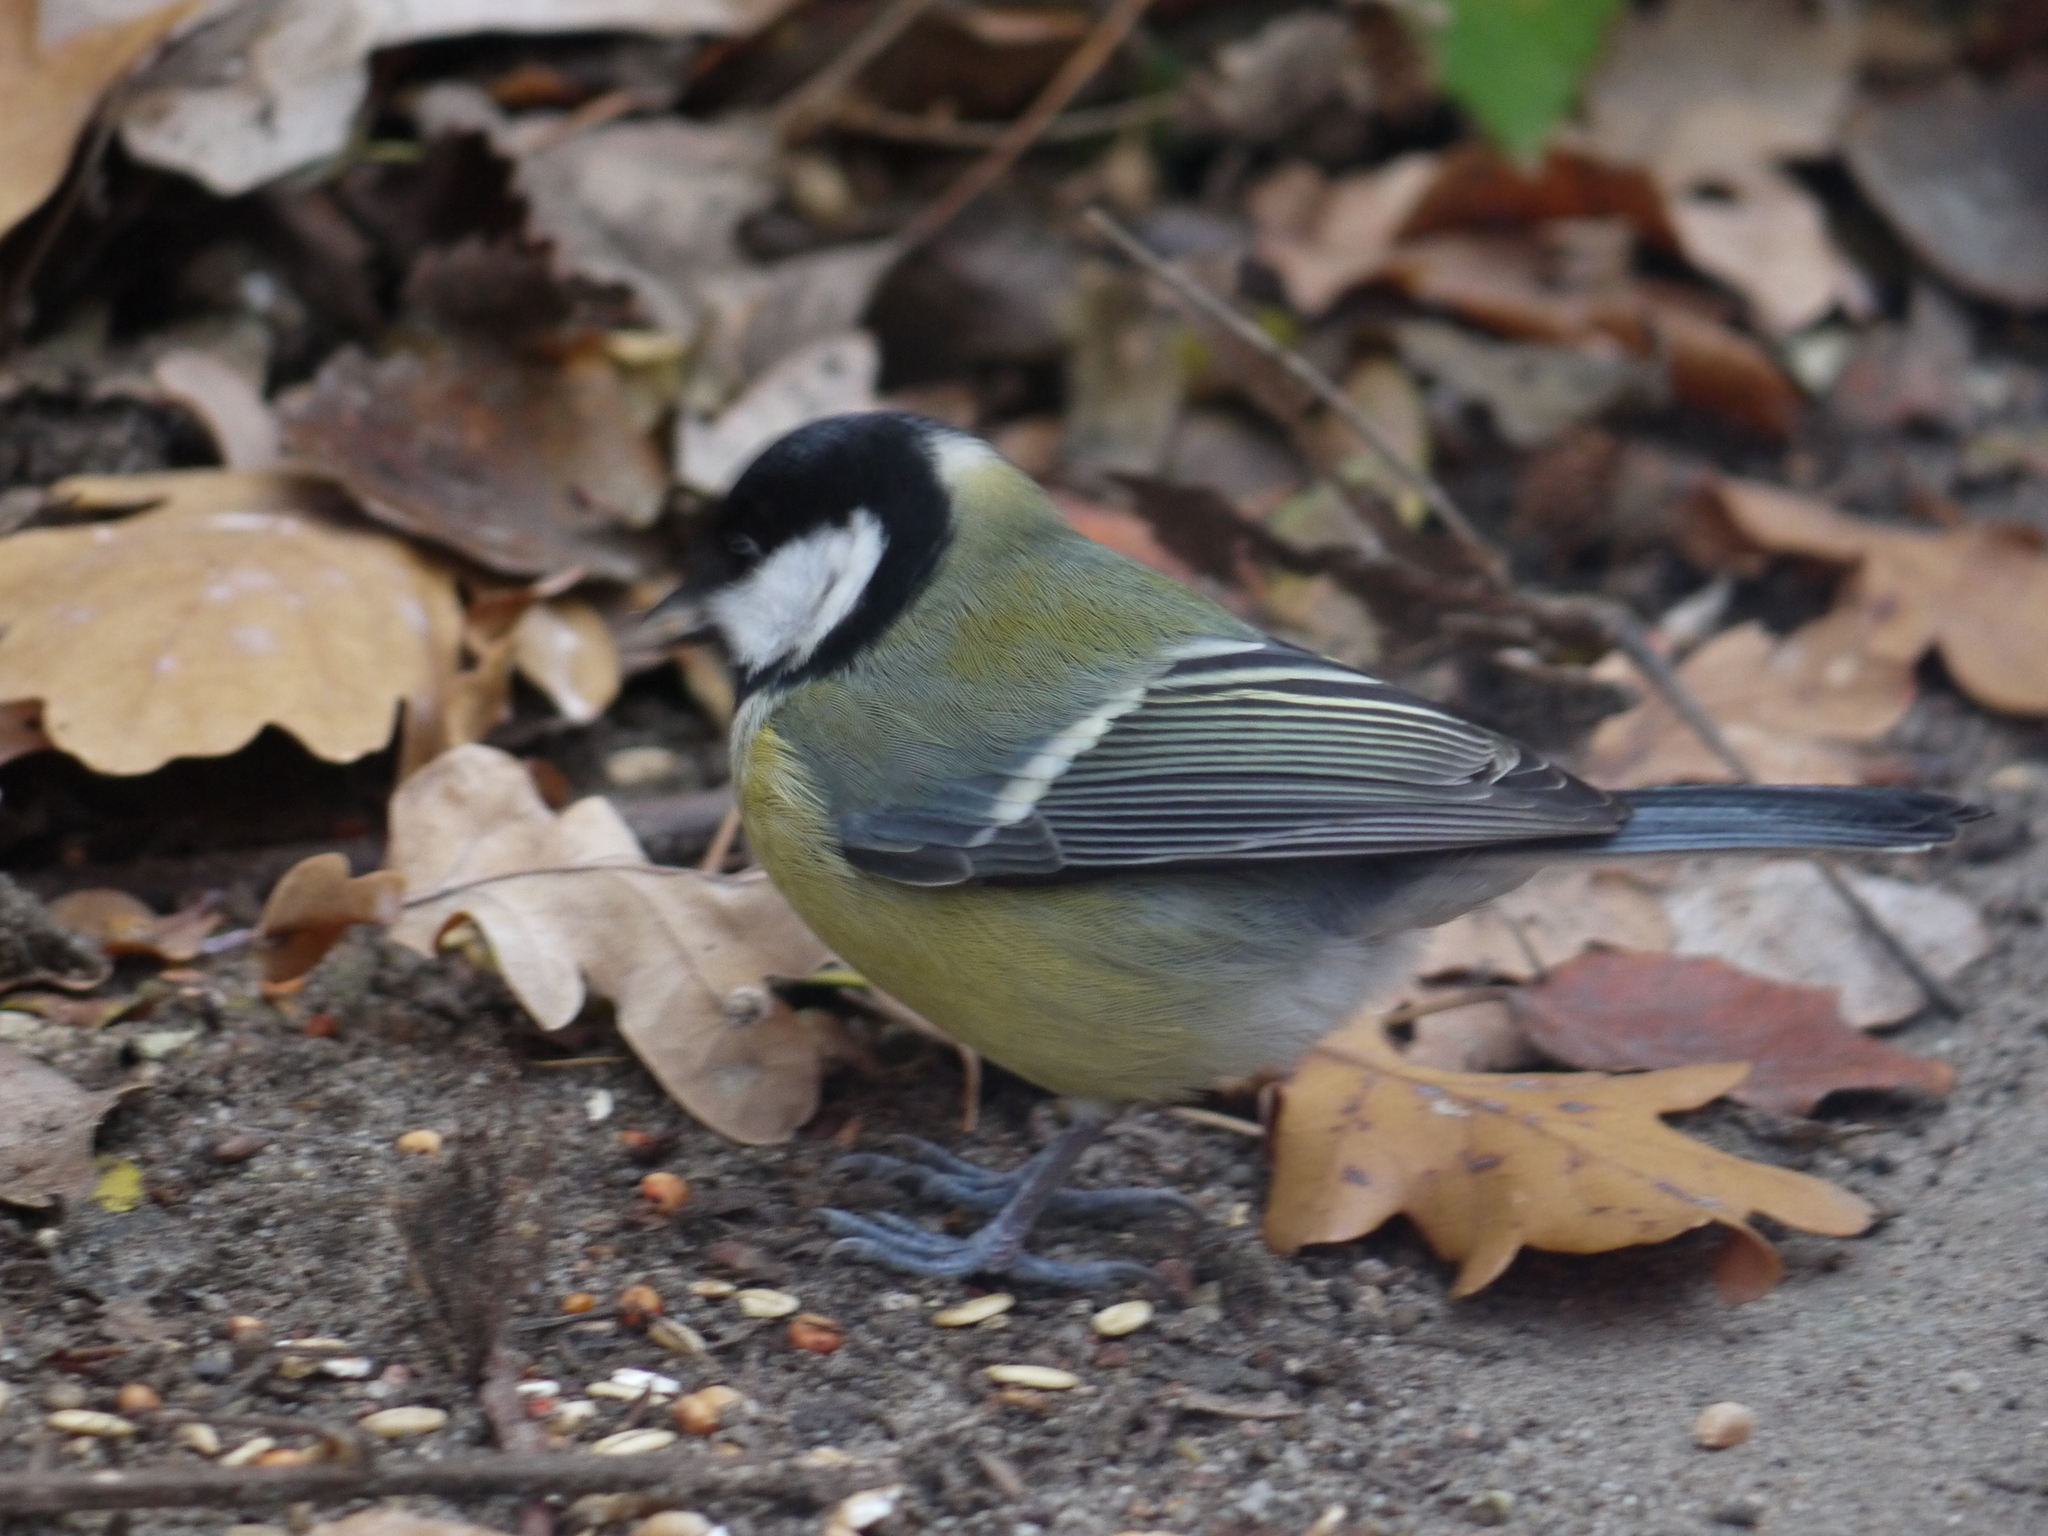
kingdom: Animalia
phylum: Chordata
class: Aves
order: Passeriformes
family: Paridae
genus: Parus
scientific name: Parus major
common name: Great tit
